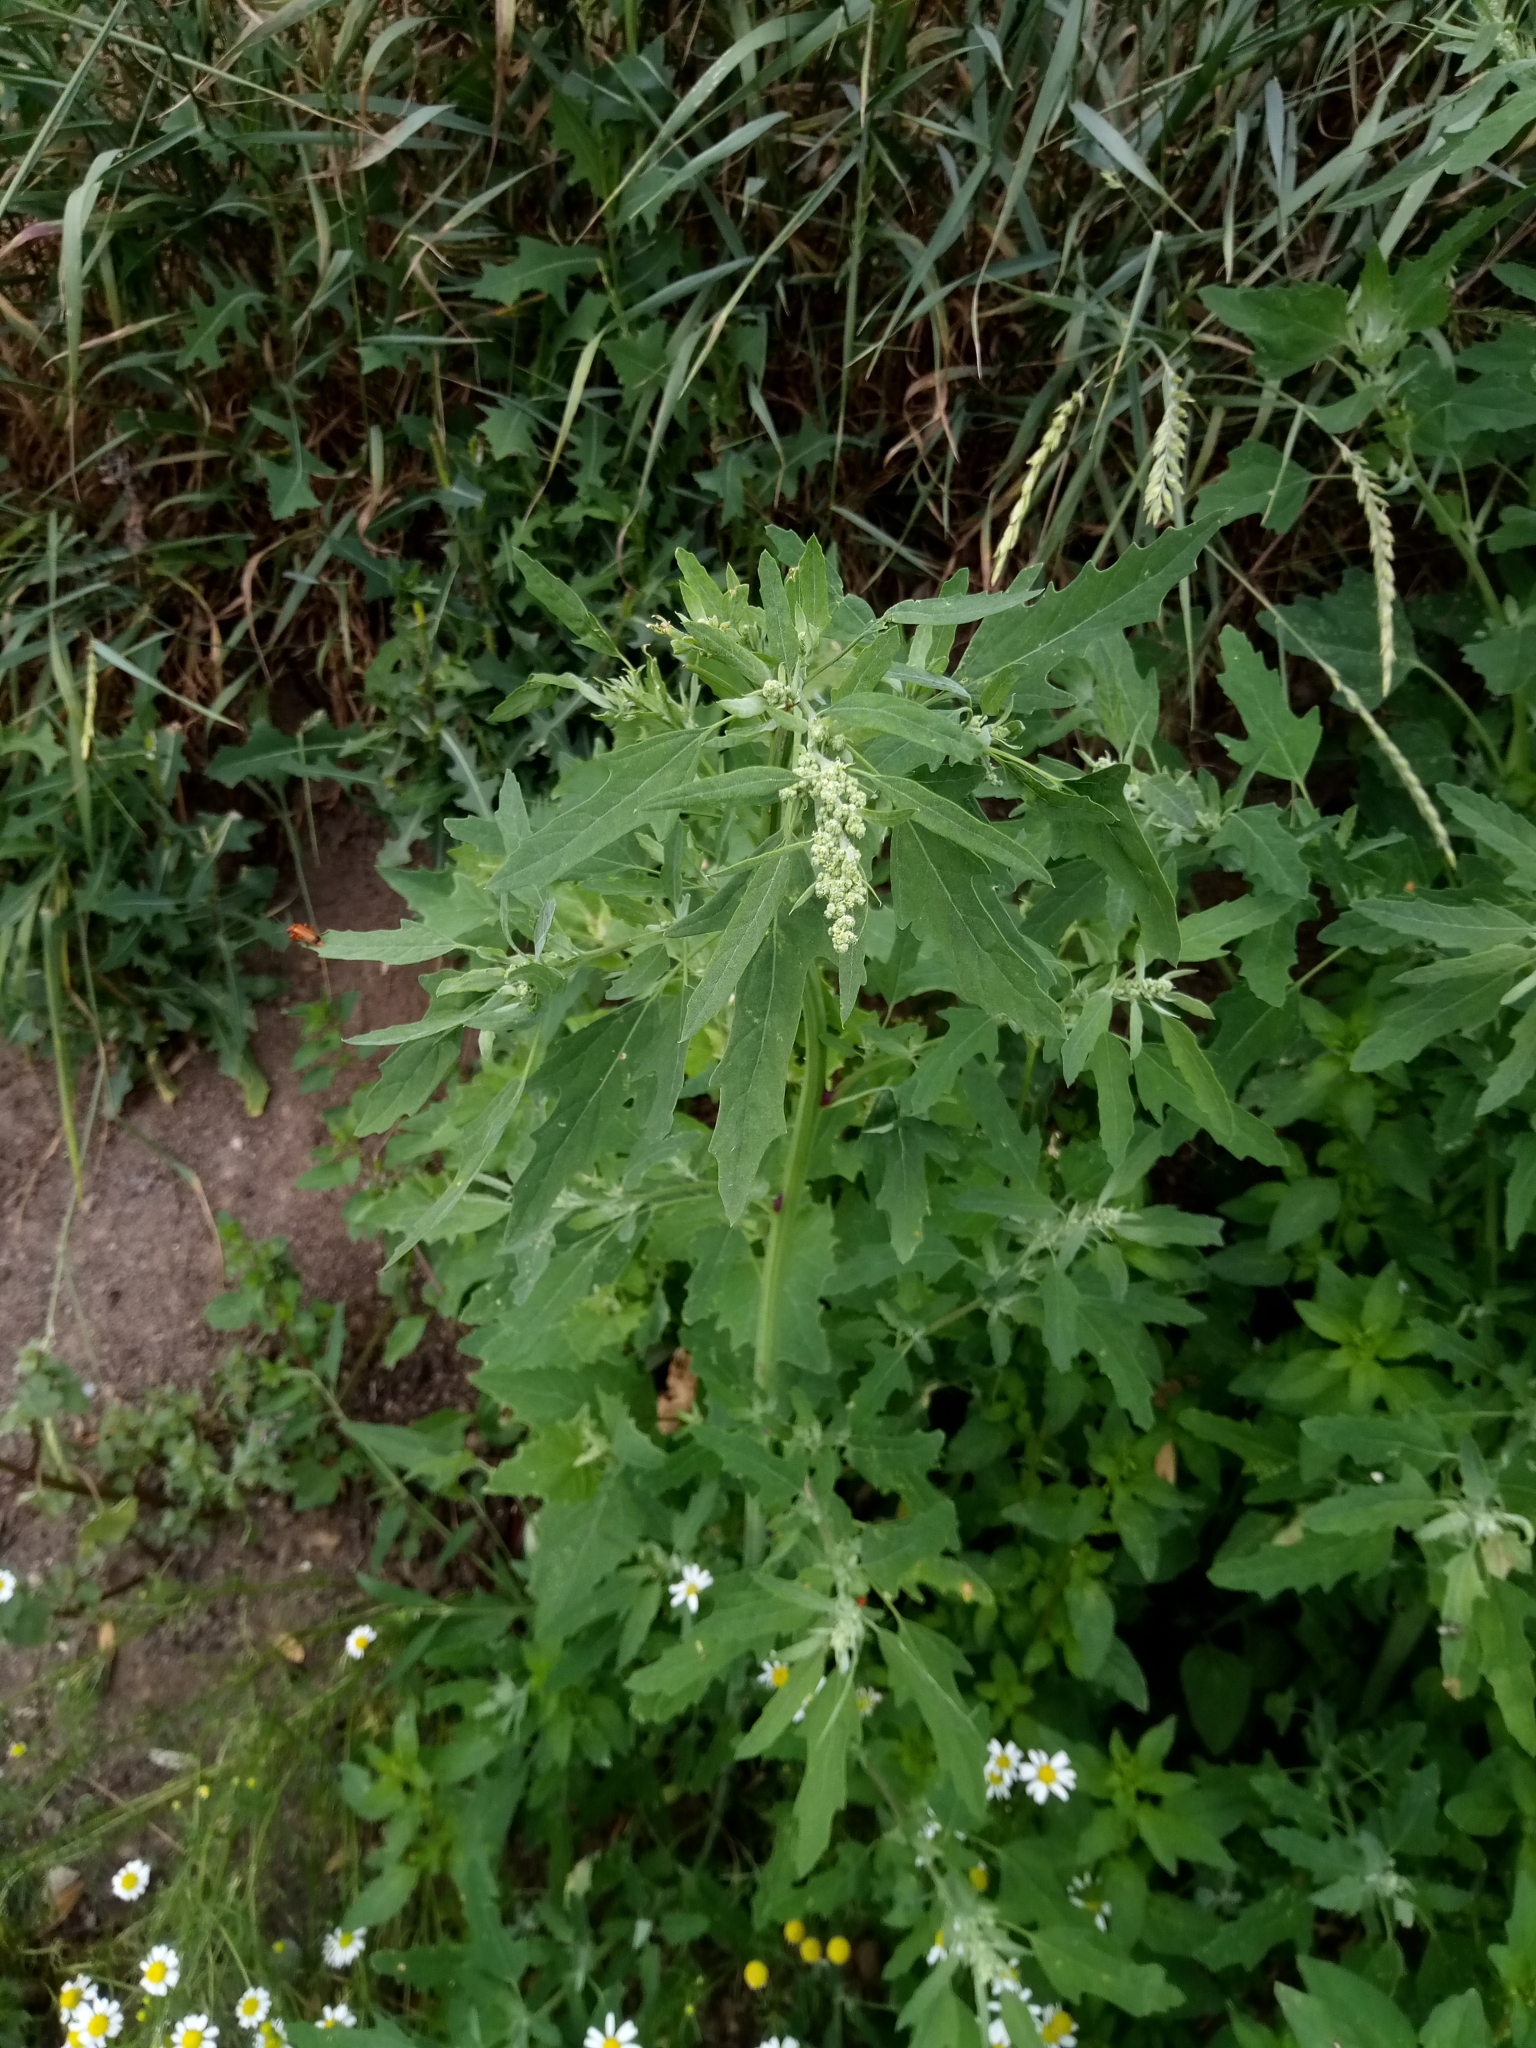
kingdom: Plantae
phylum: Tracheophyta
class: Magnoliopsida
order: Caryophyllales
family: Amaranthaceae
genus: Chenopodium
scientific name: Chenopodium ficifolium
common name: Fig-leaved goosefoot
